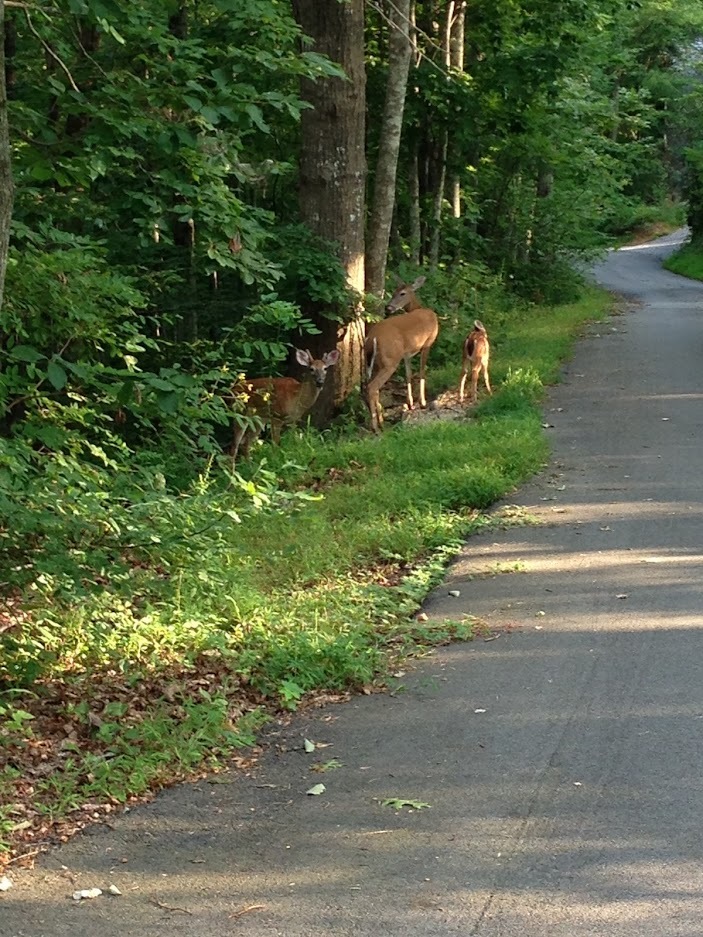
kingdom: Animalia
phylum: Chordata
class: Mammalia
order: Artiodactyla
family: Cervidae
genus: Odocoileus
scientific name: Odocoileus virginianus
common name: White-tailed deer
